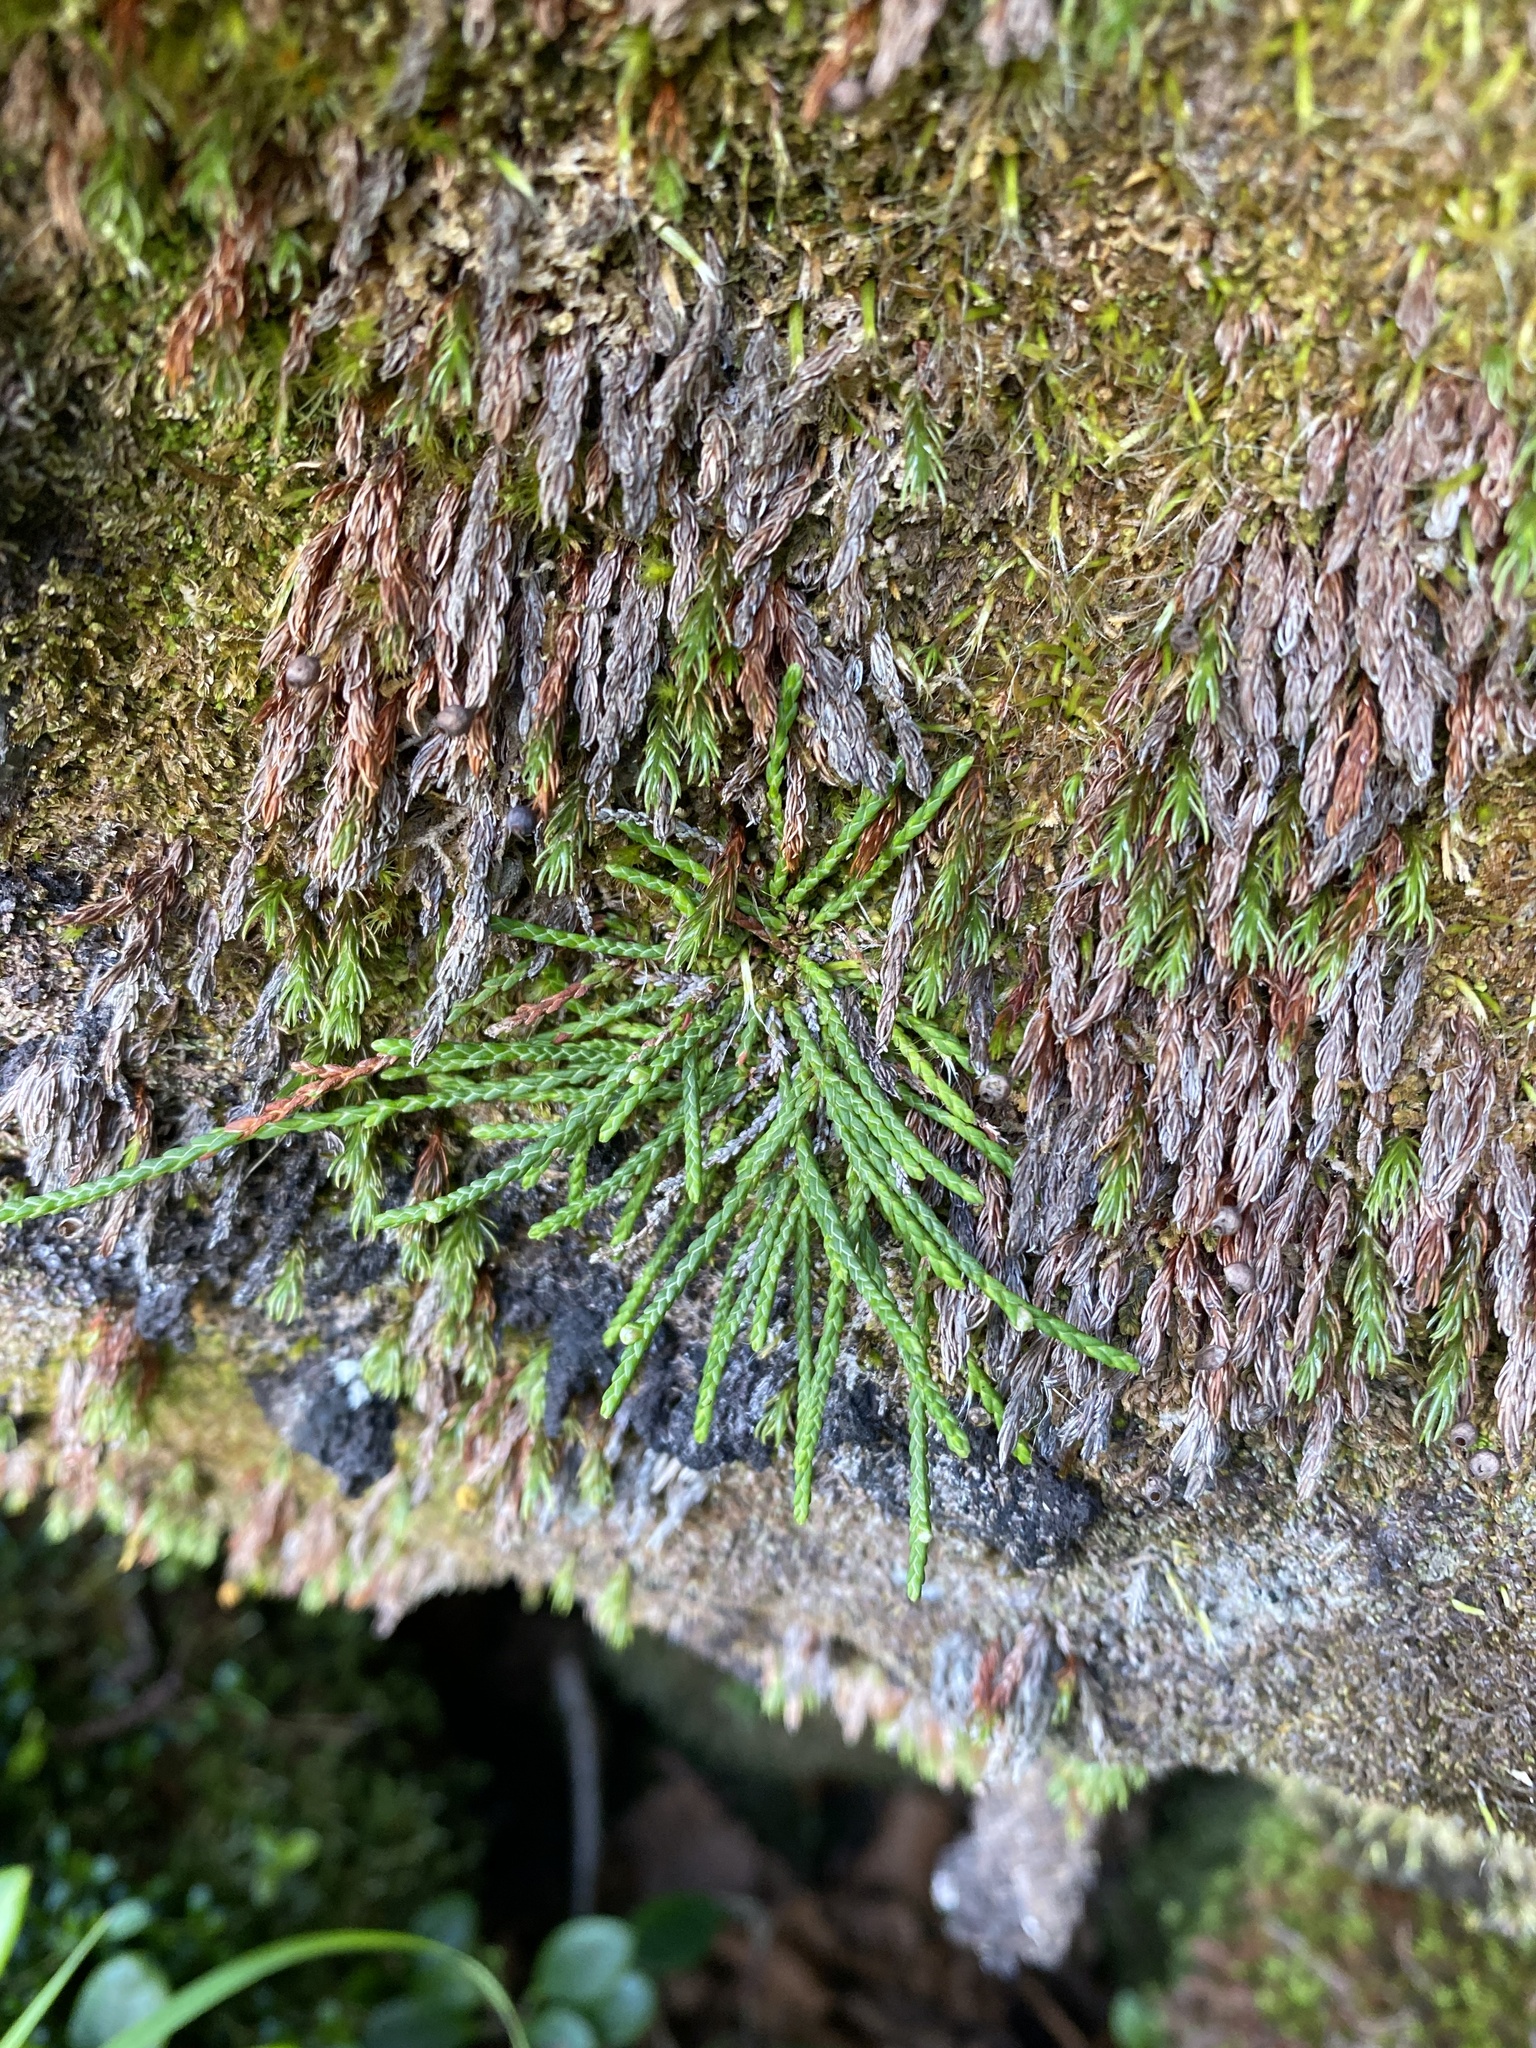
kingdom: Plantae
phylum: Tracheophyta
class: Magnoliopsida
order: Ericales
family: Ericaceae
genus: Cassiope
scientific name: Cassiope lycopodioides
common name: Clubmoss mountain heather
